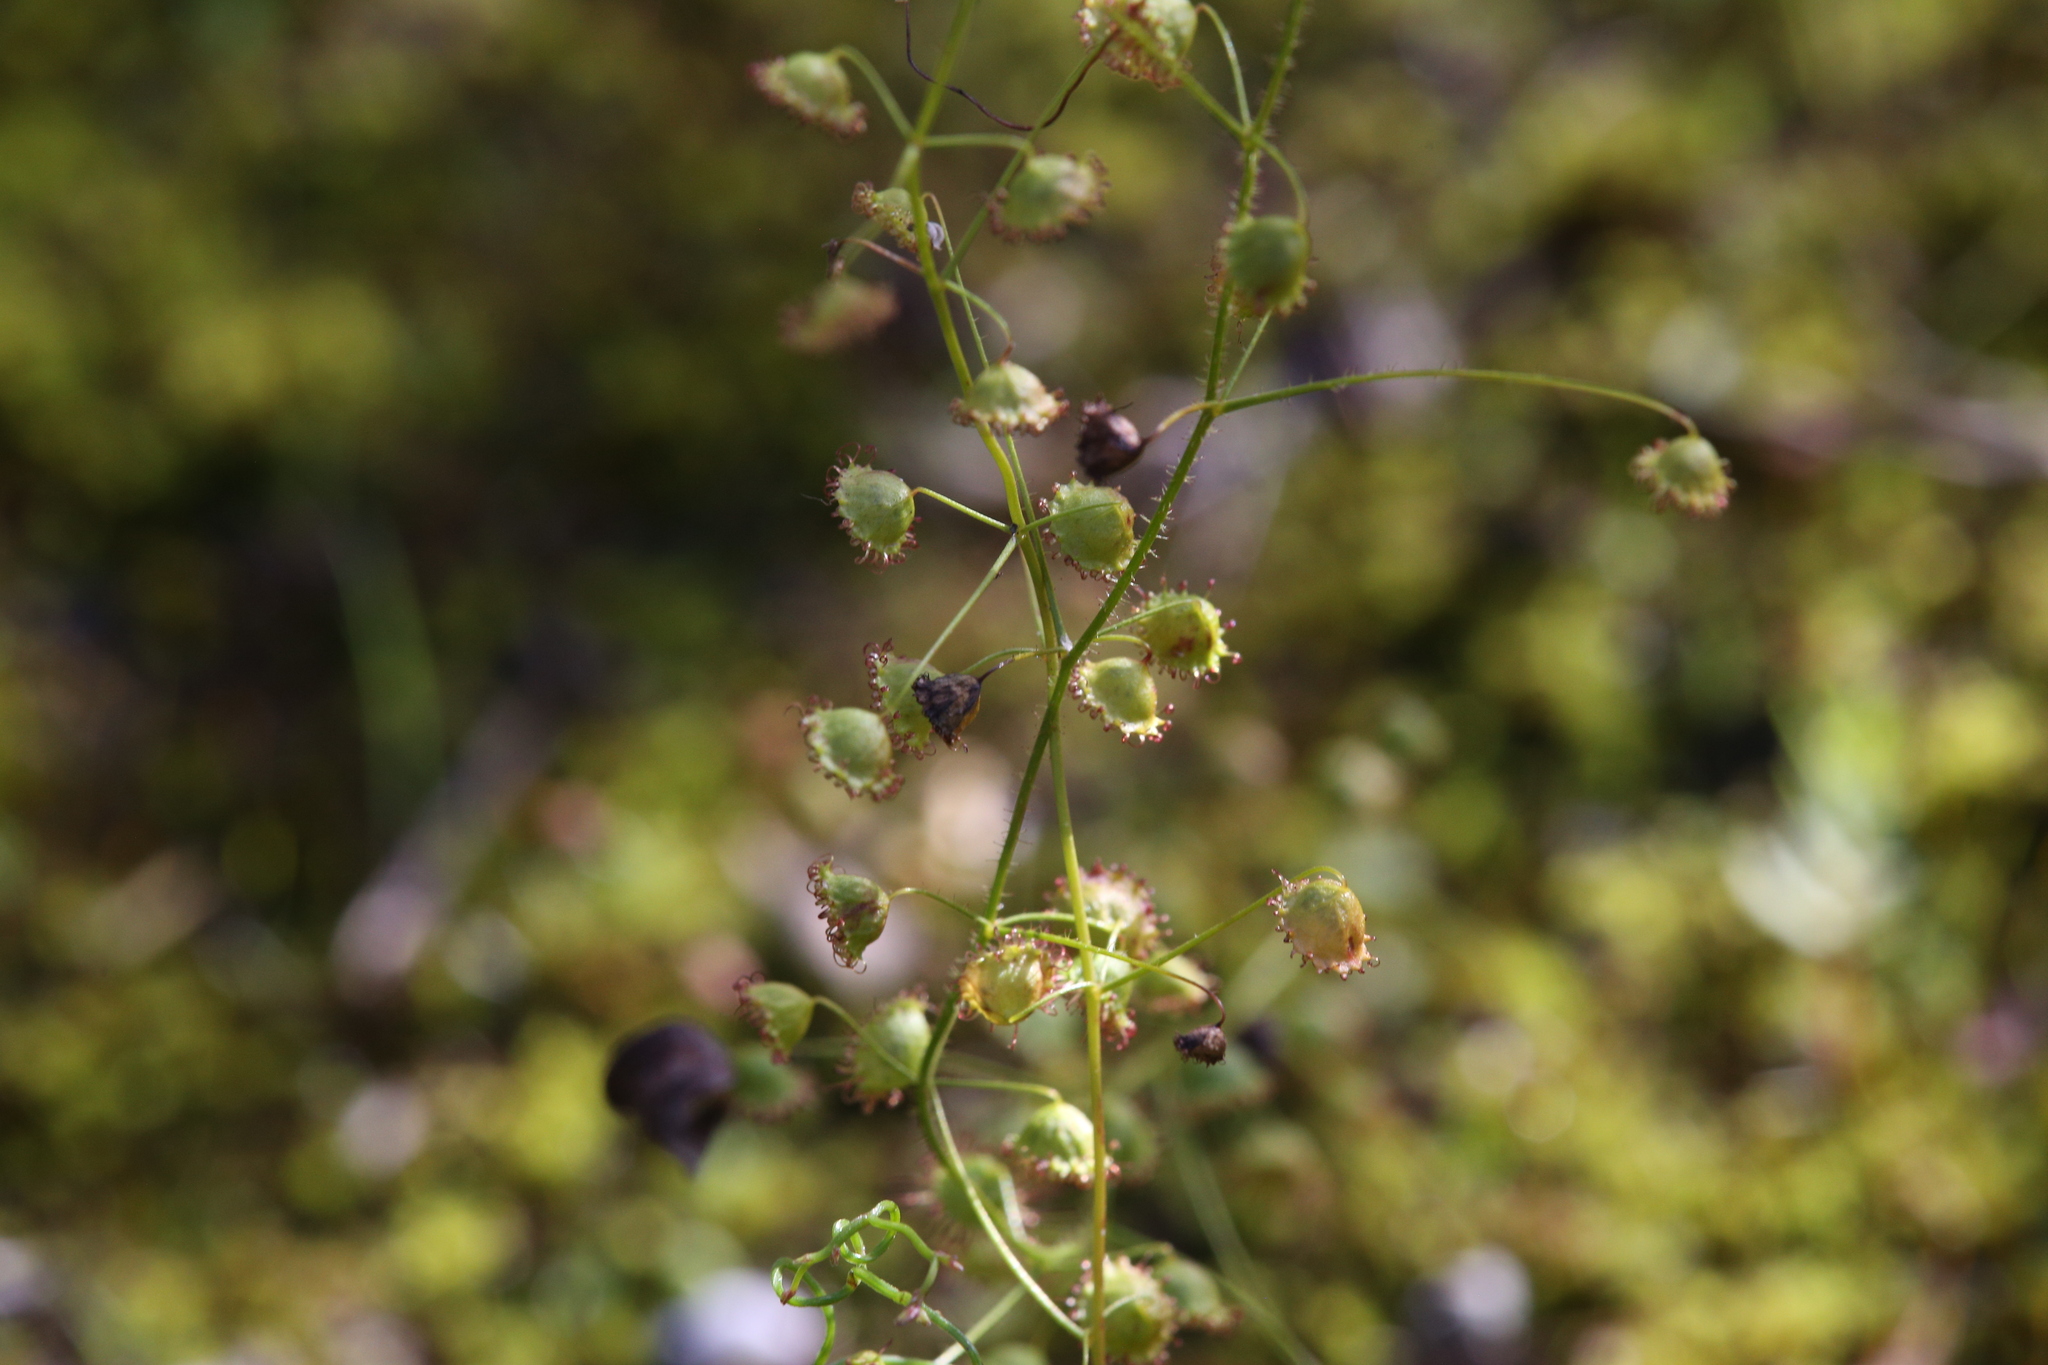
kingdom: Plantae
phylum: Tracheophyta
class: Magnoliopsida
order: Caryophyllales
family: Droseraceae
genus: Drosera
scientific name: Drosera macrantha
